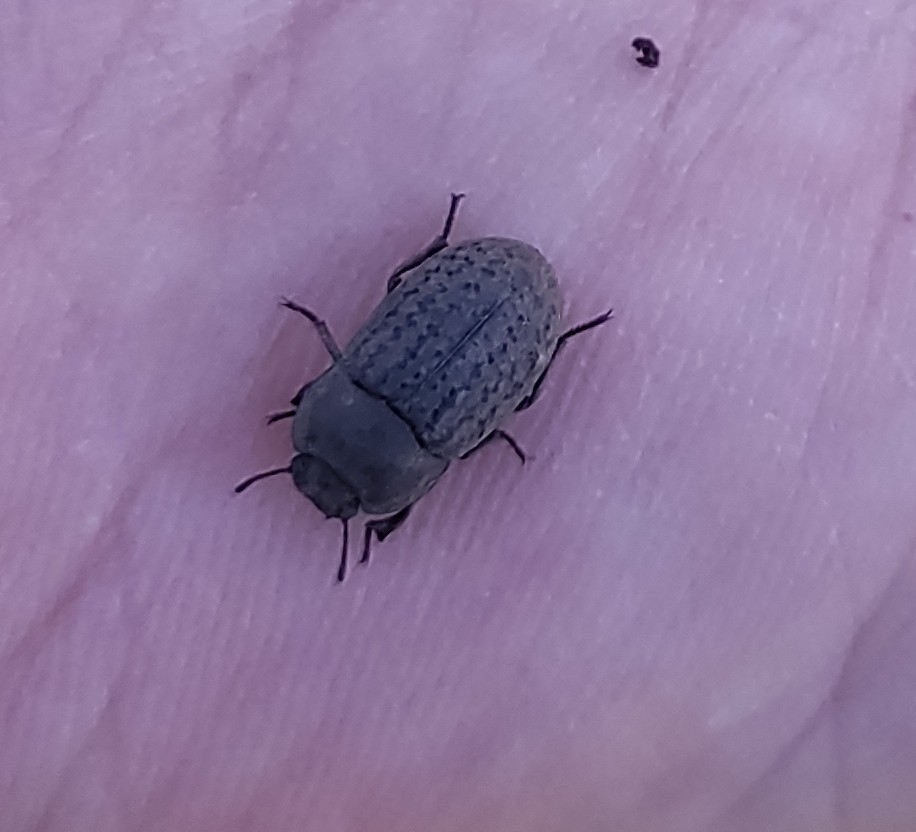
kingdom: Animalia
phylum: Arthropoda
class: Insecta
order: Coleoptera
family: Tenebrionidae
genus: Opatrum
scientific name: Opatrum sabulosum
